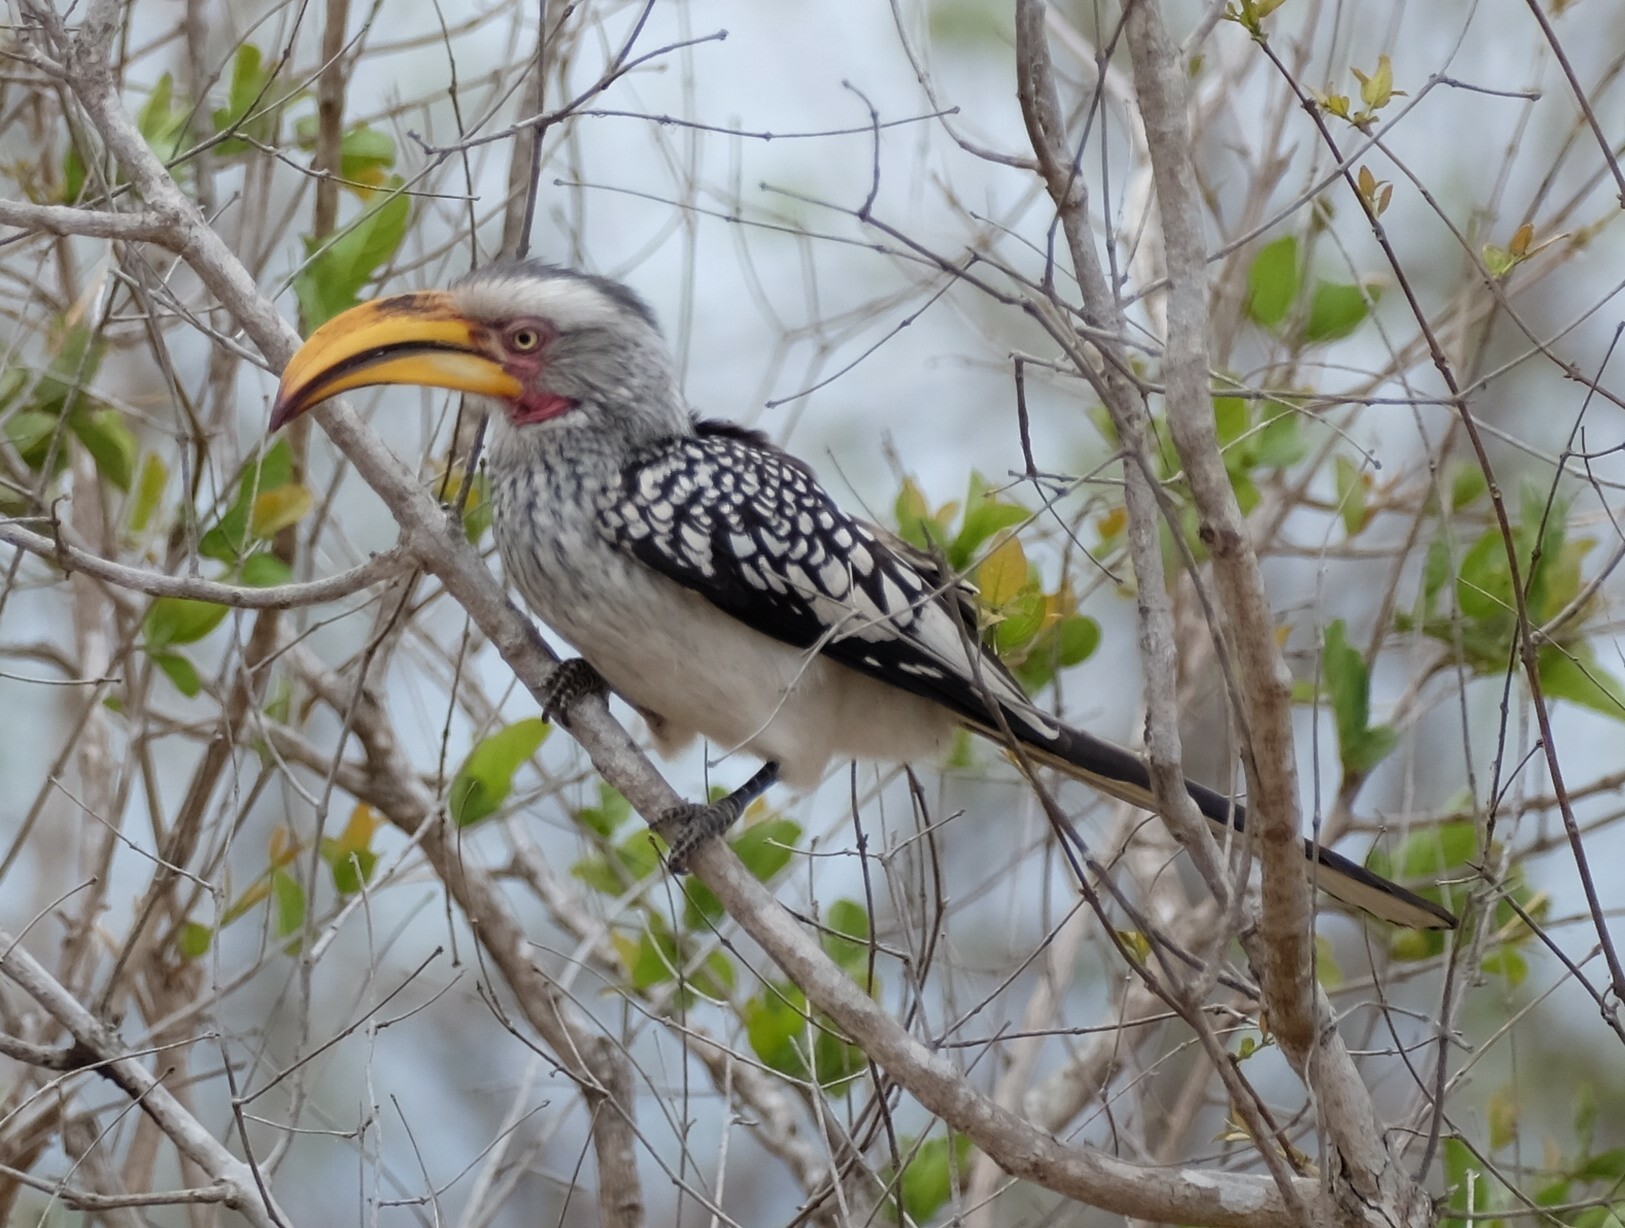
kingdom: Animalia
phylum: Chordata
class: Aves
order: Bucerotiformes
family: Bucerotidae
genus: Tockus
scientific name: Tockus leucomelas
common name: Southern yellow-billed hornbill
